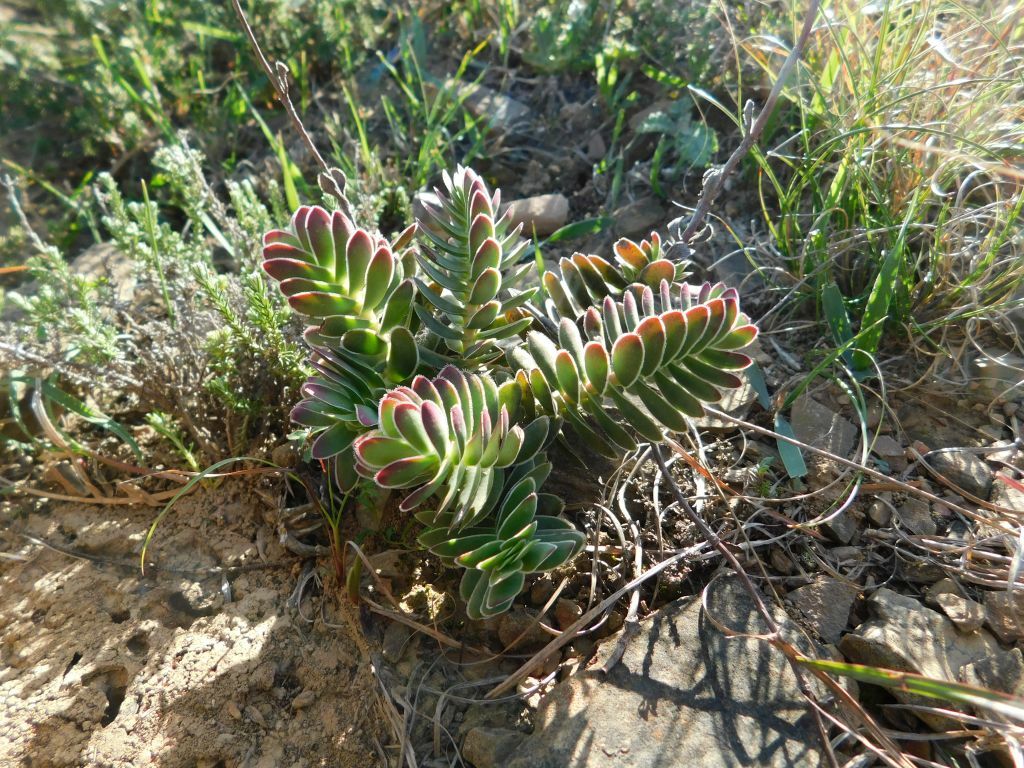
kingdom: Plantae
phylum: Tracheophyta
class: Magnoliopsida
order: Saxifragales
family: Crassulaceae
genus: Crassula
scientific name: Crassula ciliata
